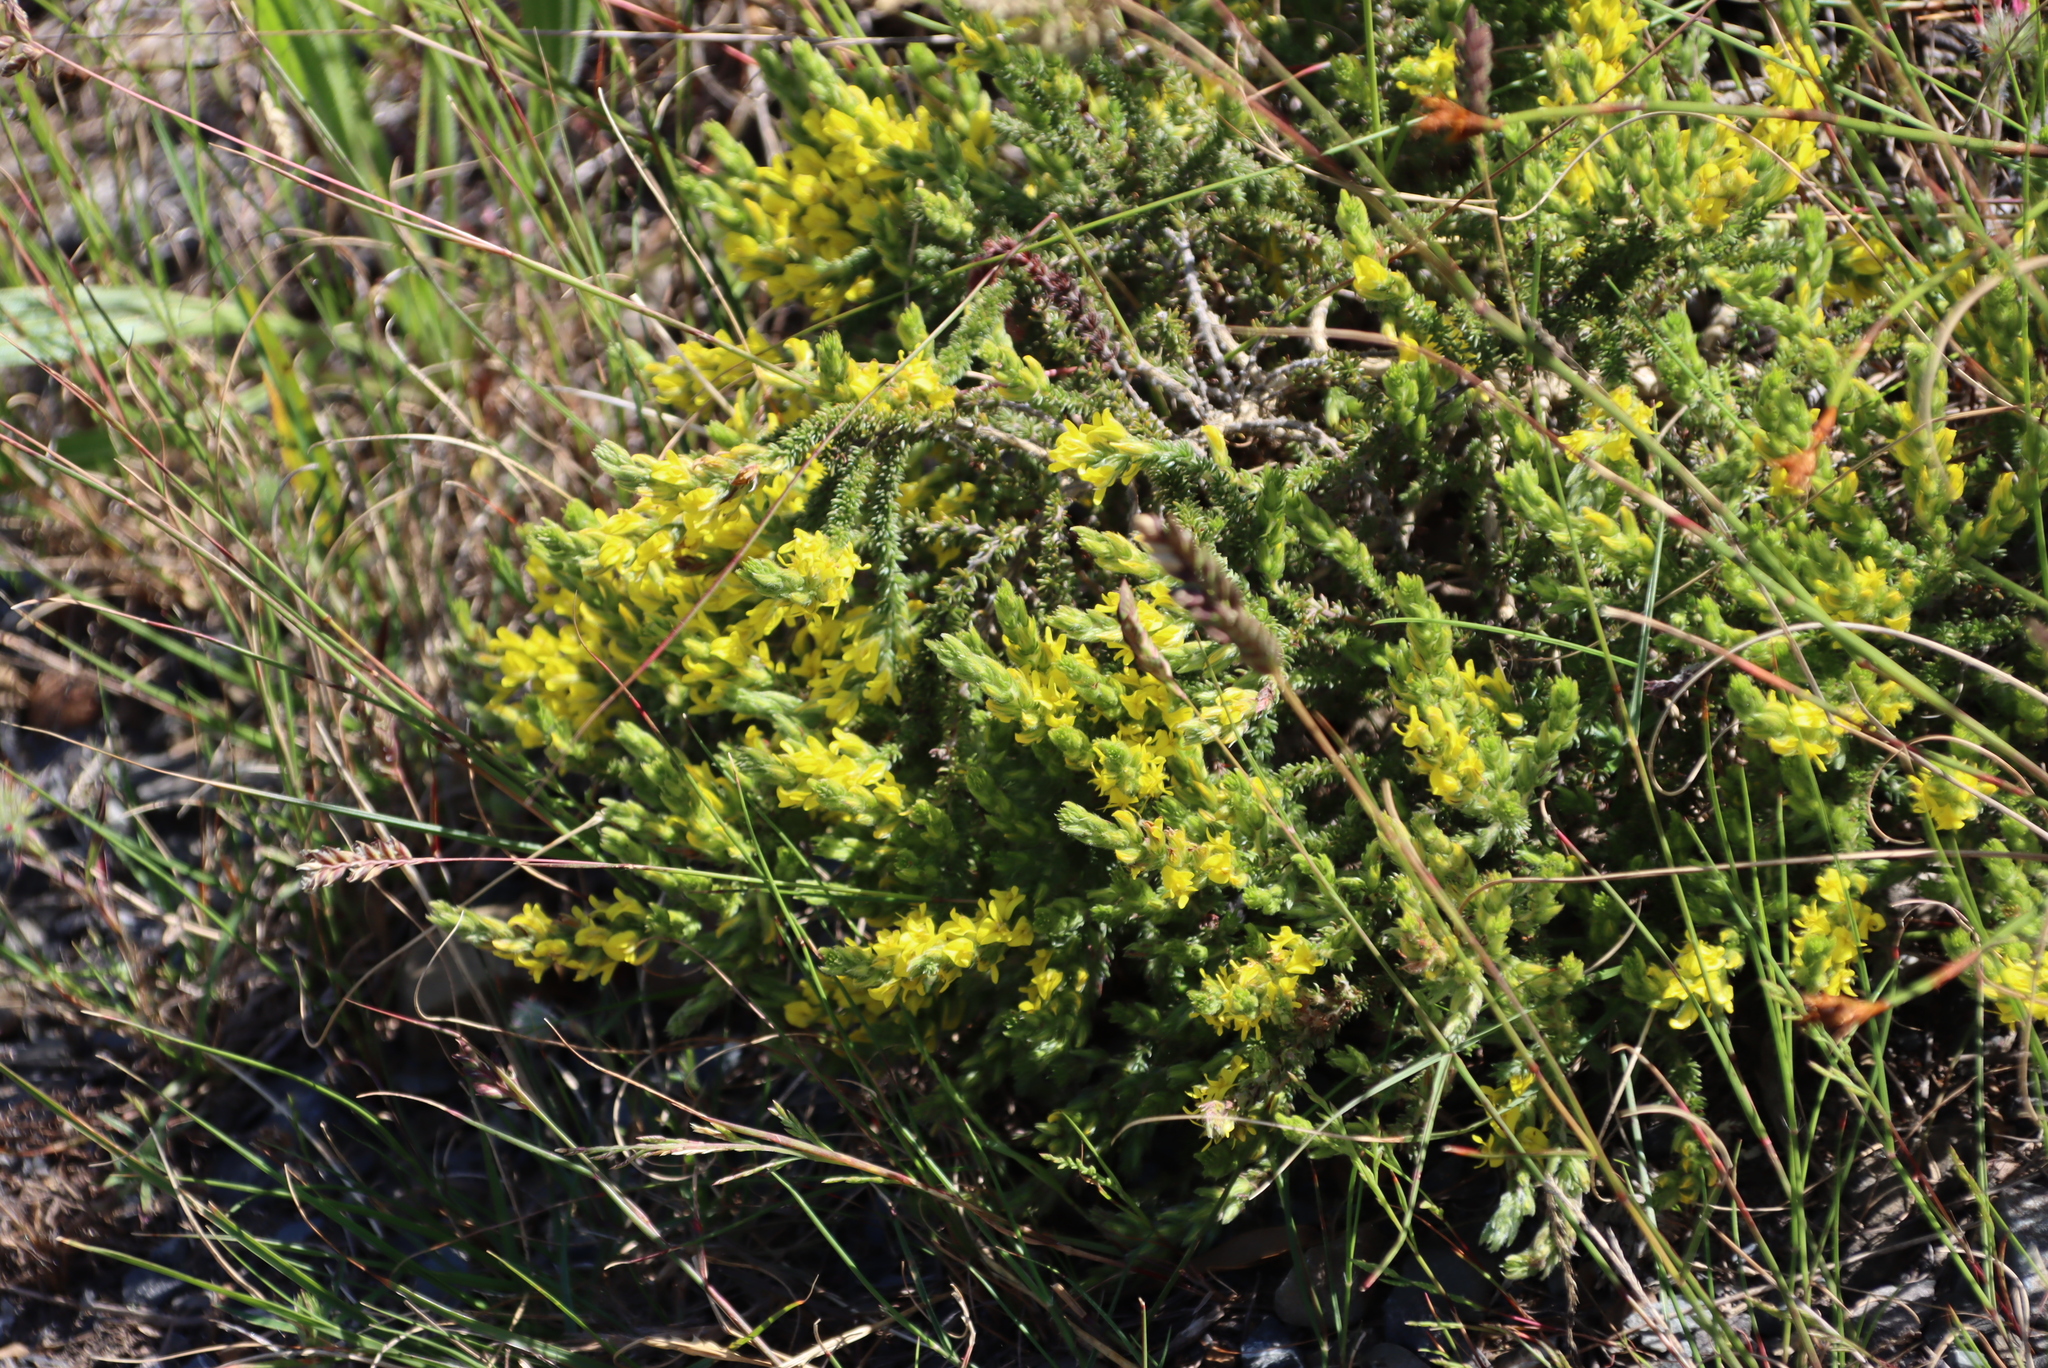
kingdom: Plantae
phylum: Tracheophyta
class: Magnoliopsida
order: Fabales
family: Fabaceae
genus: Aspalathus
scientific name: Aspalathus ericifolia
